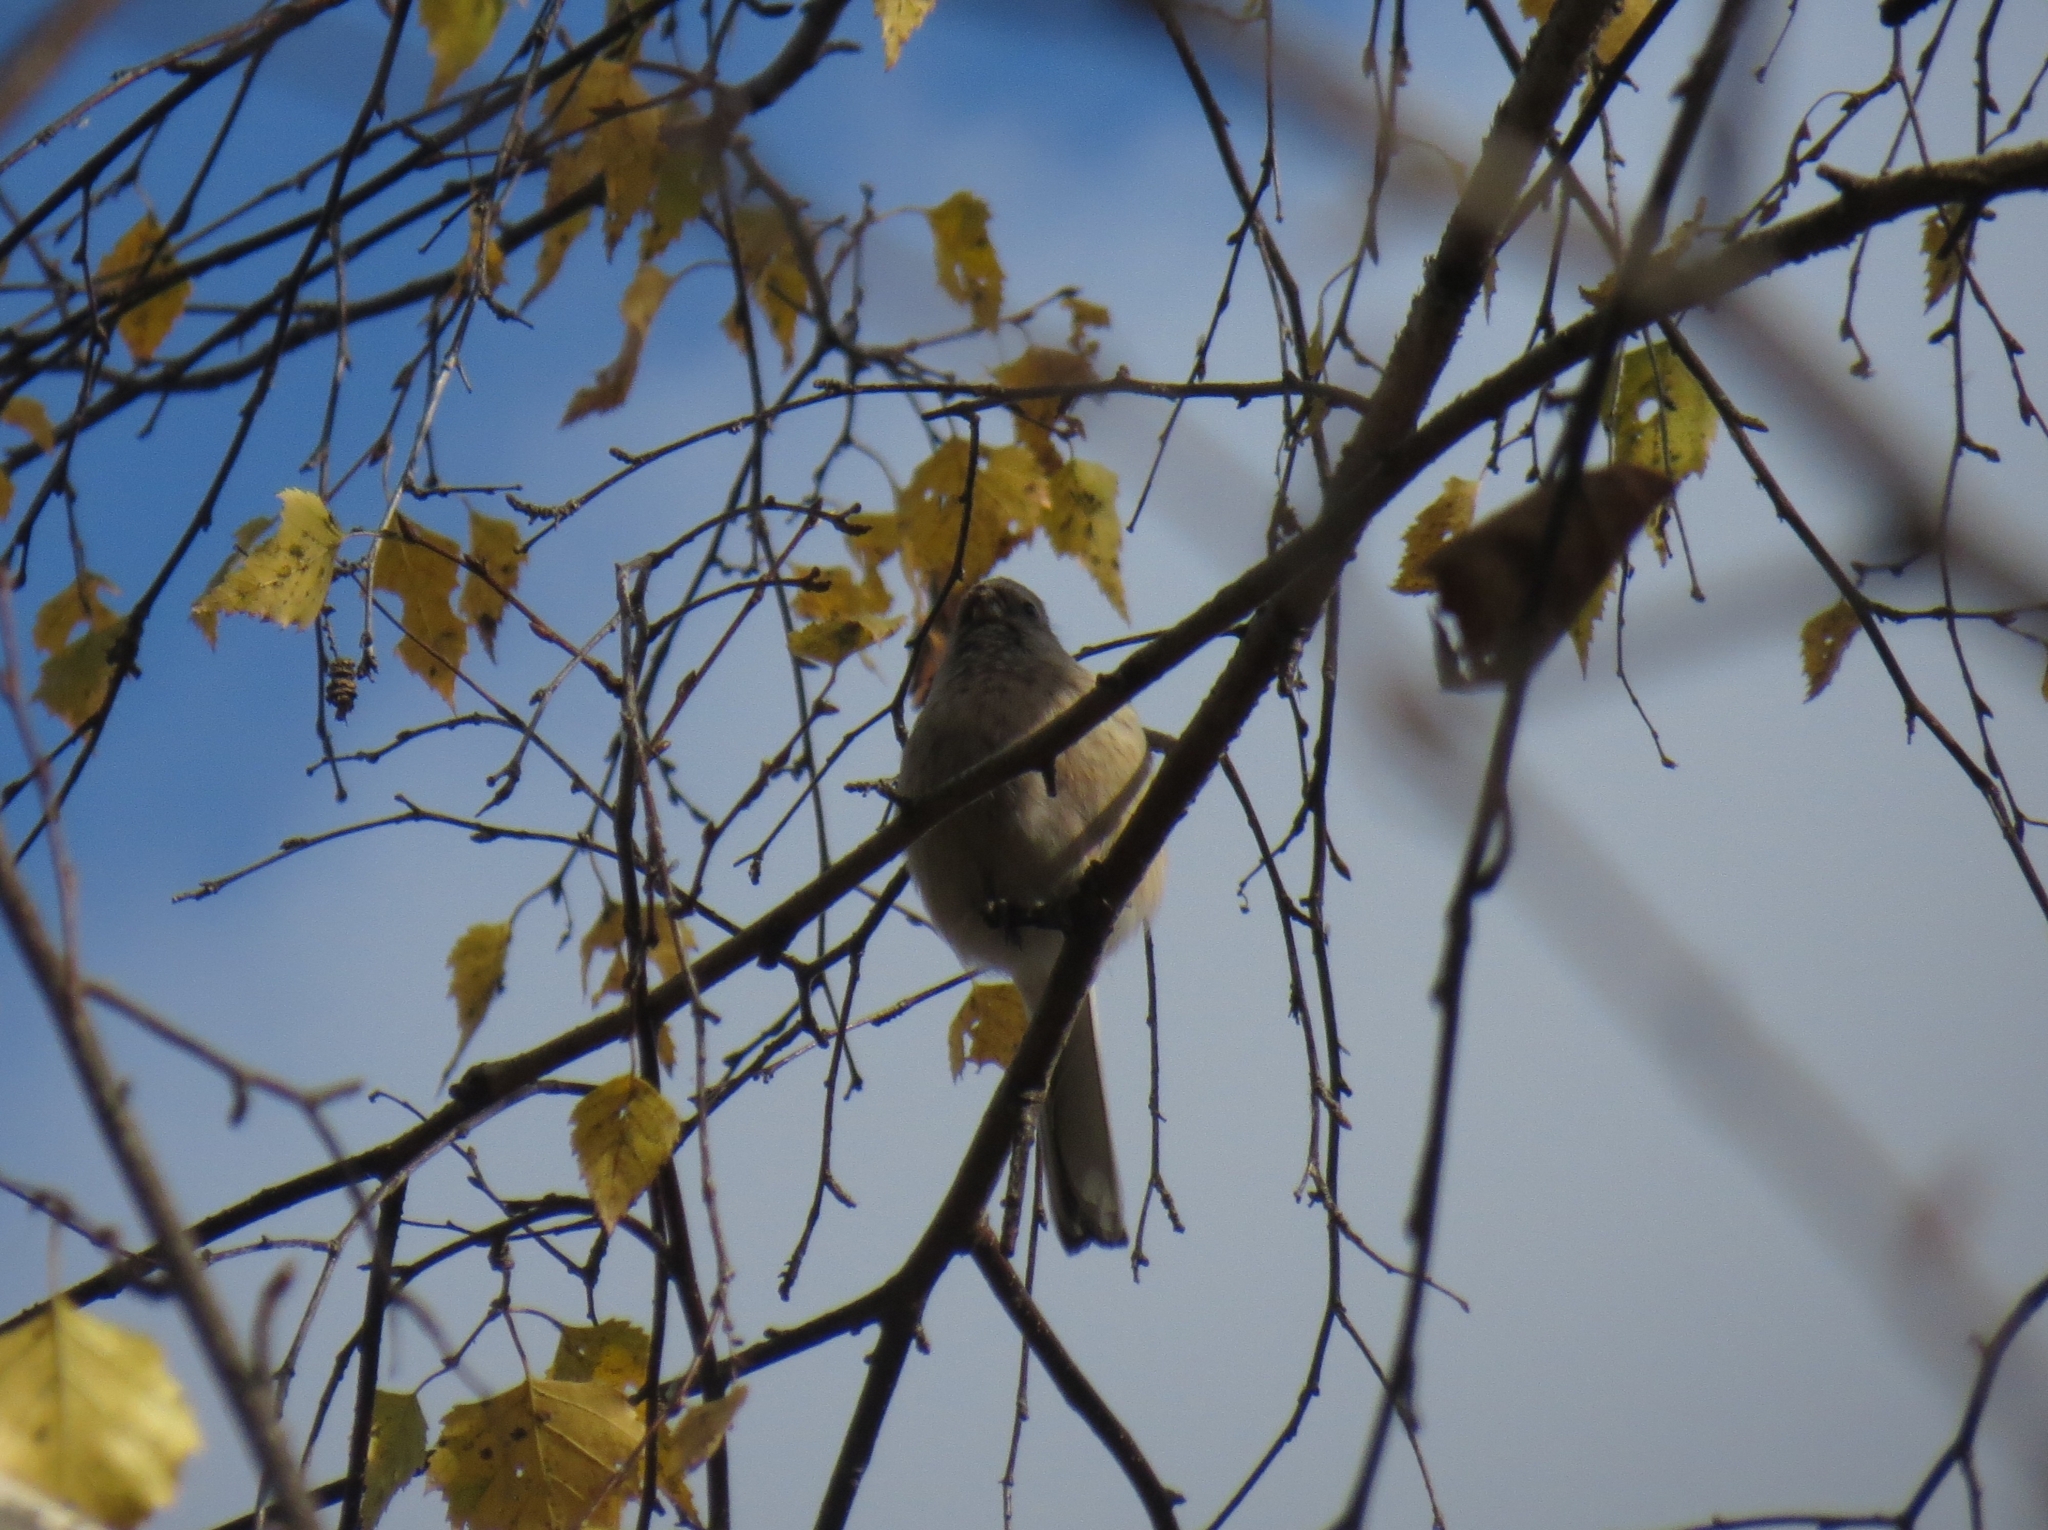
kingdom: Animalia
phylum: Chordata
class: Aves
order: Passeriformes
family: Fringillidae
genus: Carpodacus
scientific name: Carpodacus sibiricus
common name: Long-tailed rosefinch
